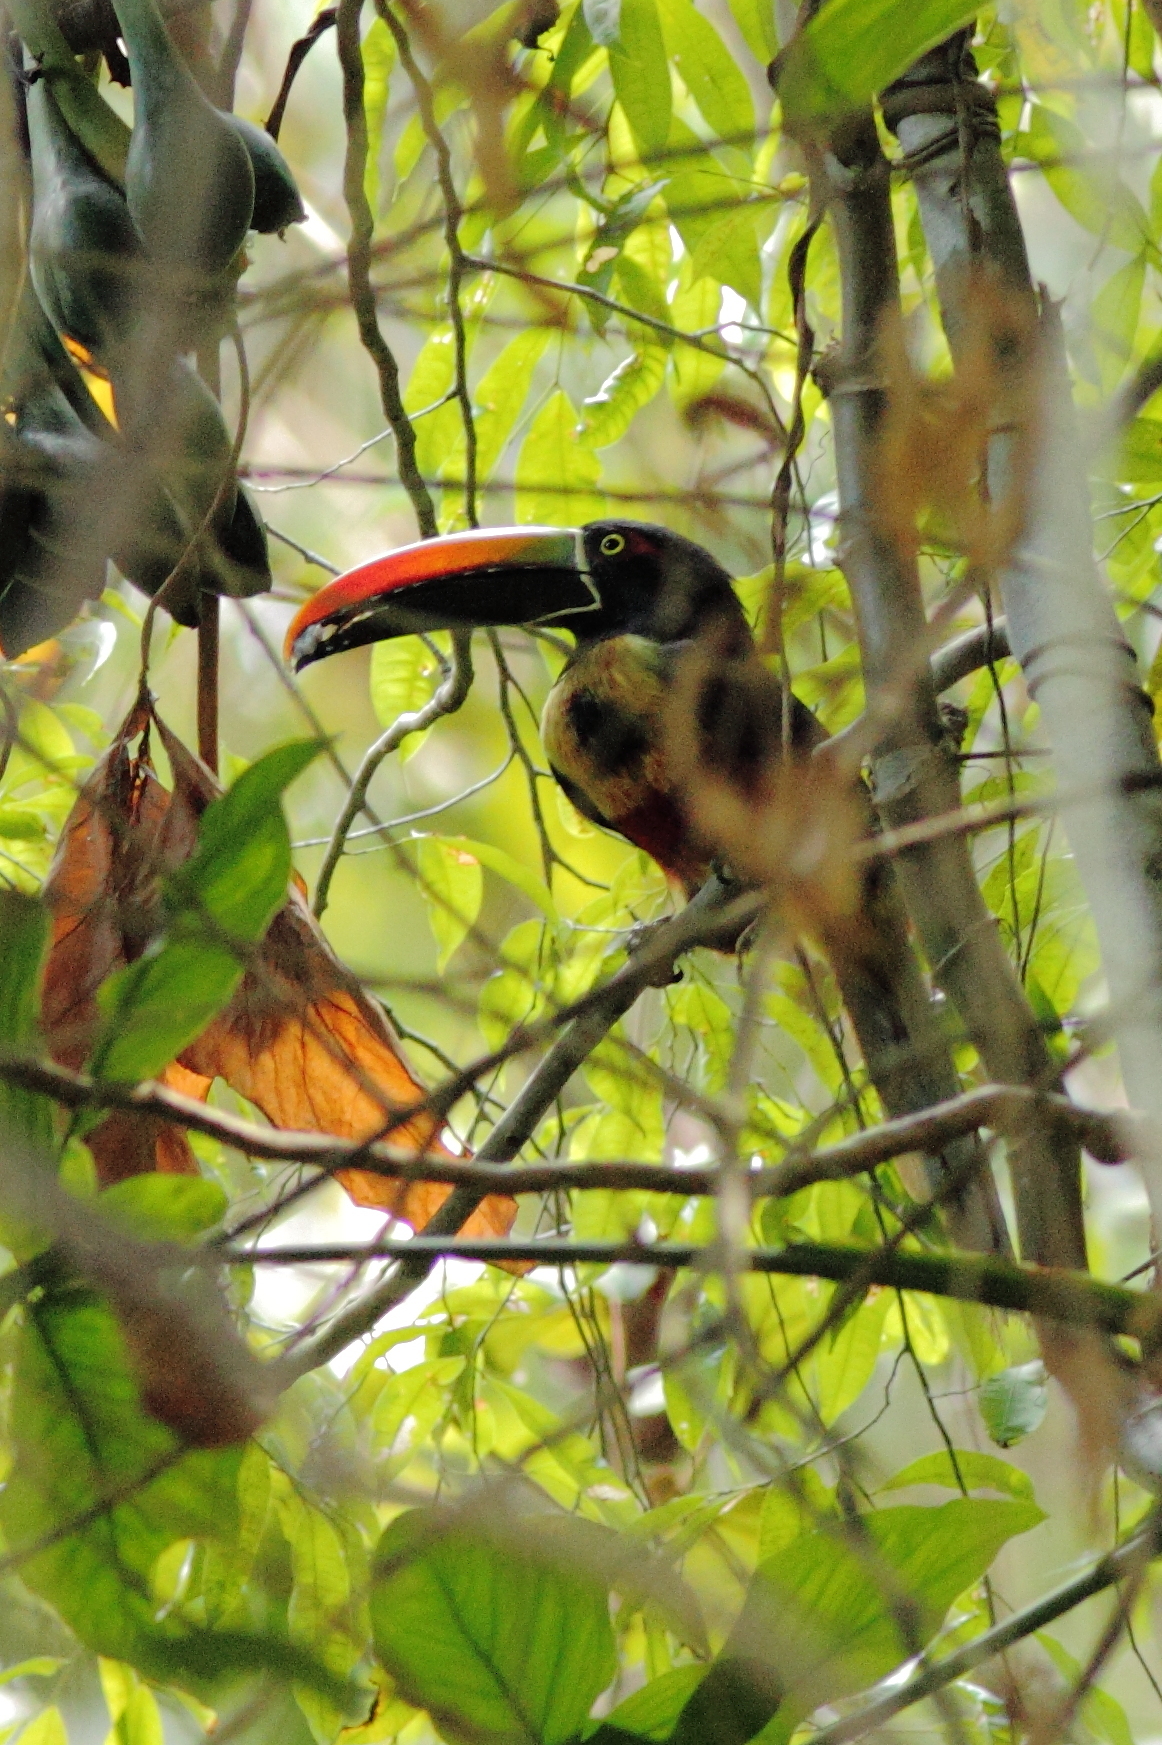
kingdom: Animalia
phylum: Chordata
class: Aves
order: Piciformes
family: Ramphastidae
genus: Pteroglossus
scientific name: Pteroglossus frantzii
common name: Fiery-billed aracari
